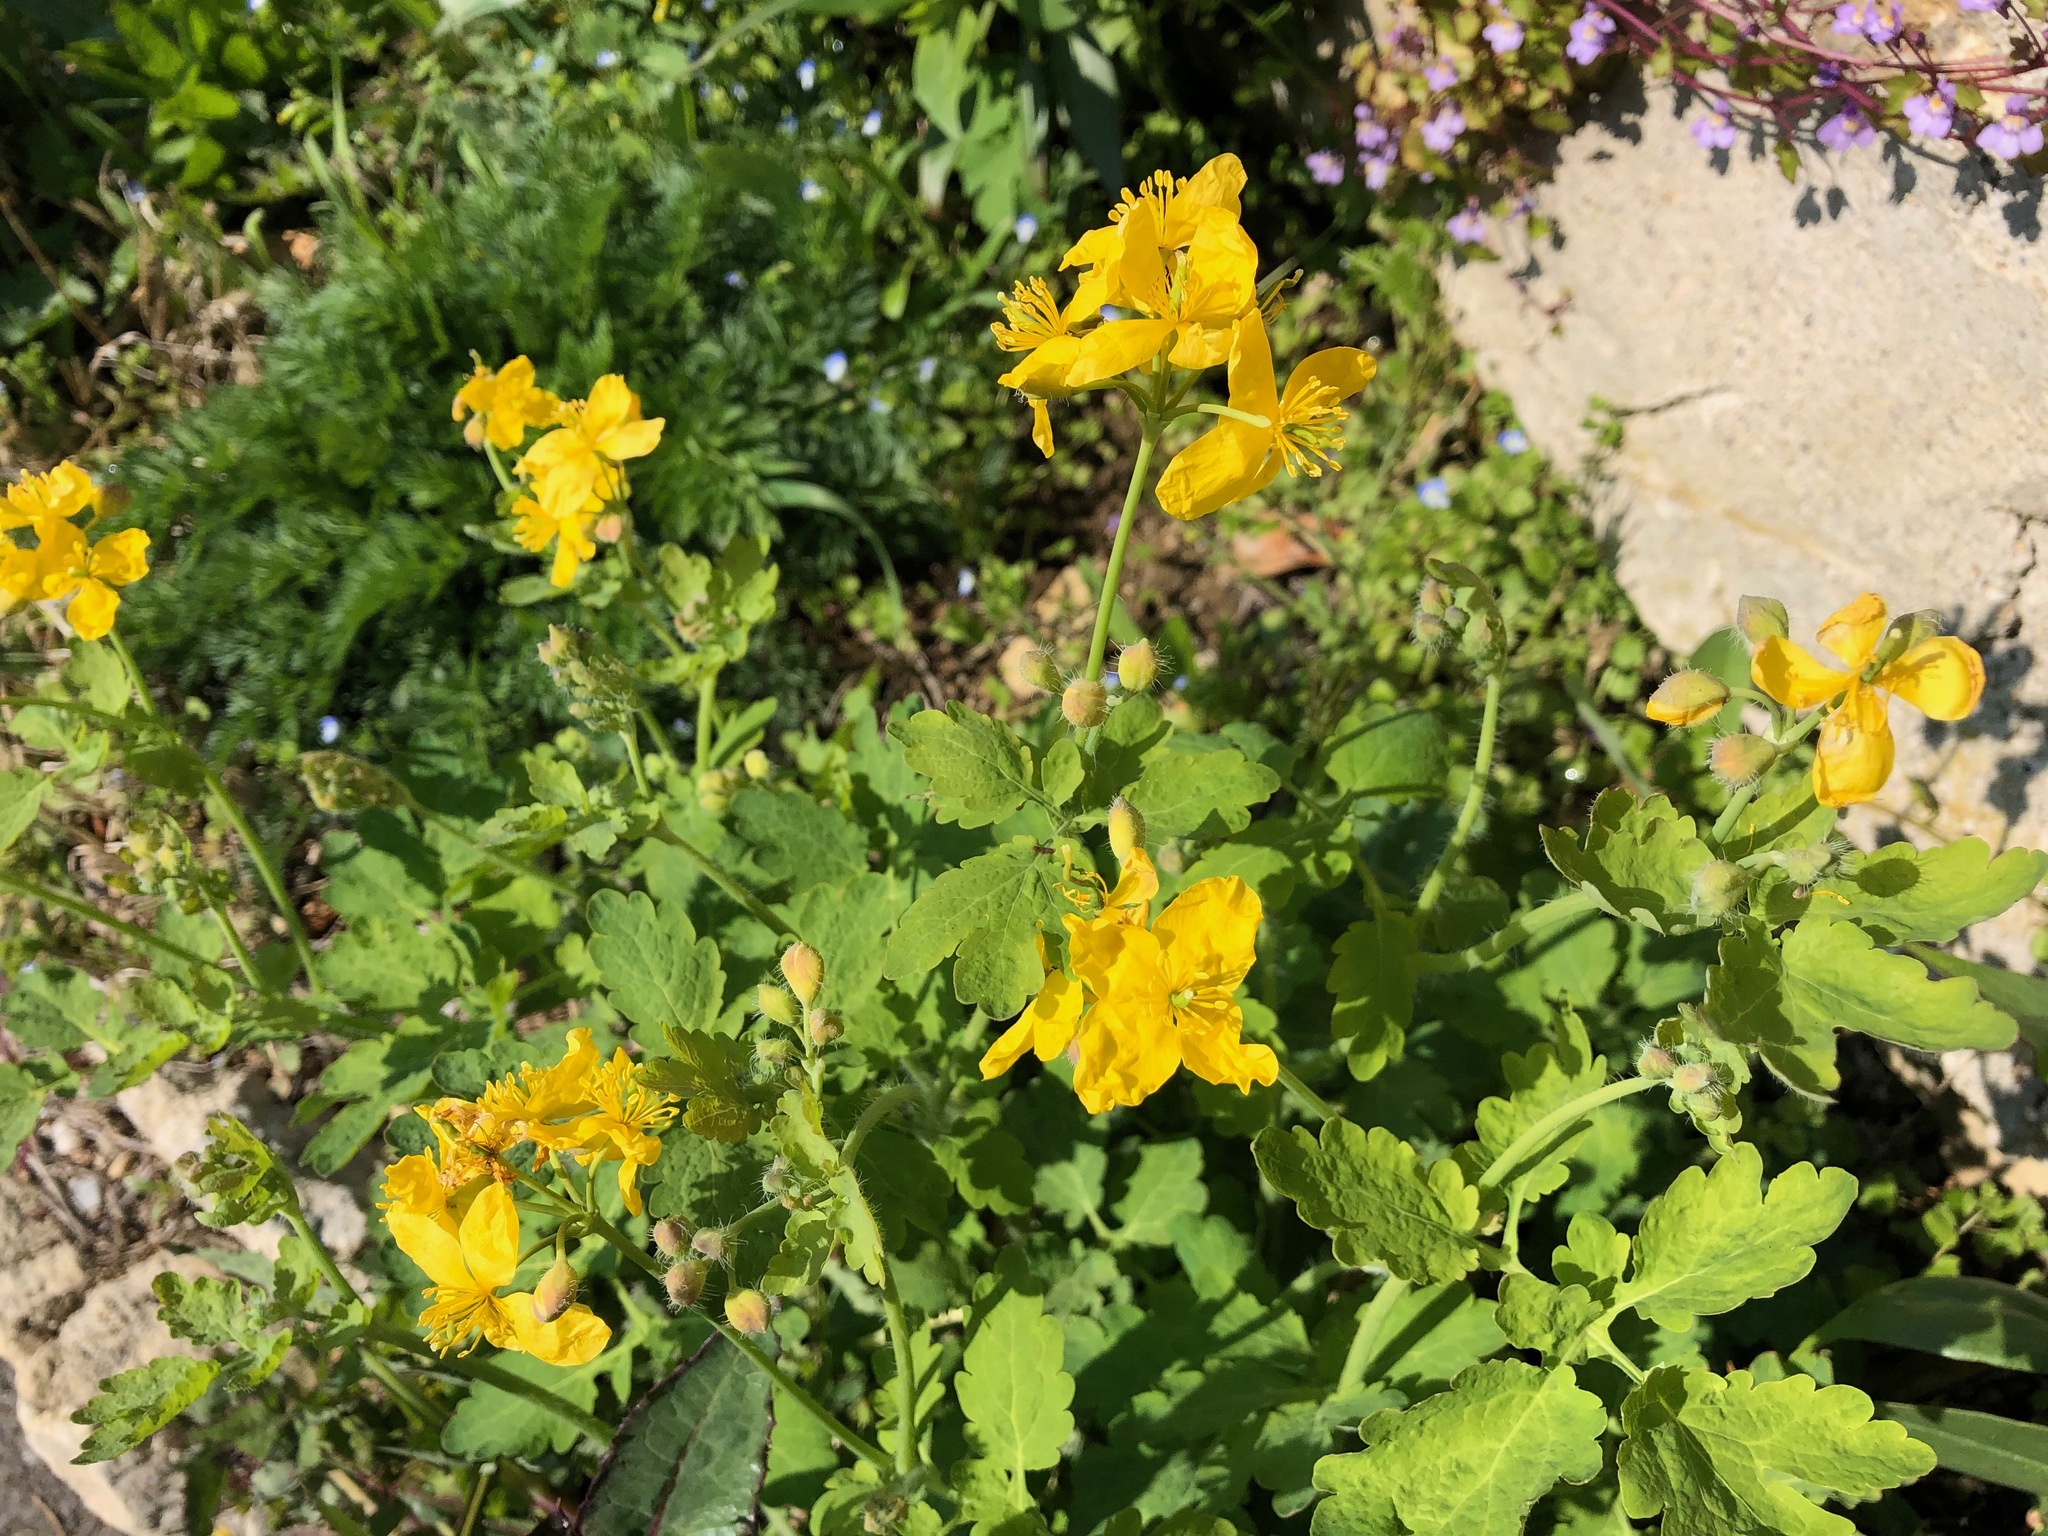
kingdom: Plantae
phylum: Tracheophyta
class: Magnoliopsida
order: Ranunculales
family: Papaveraceae
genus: Chelidonium
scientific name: Chelidonium majus
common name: Greater celandine
